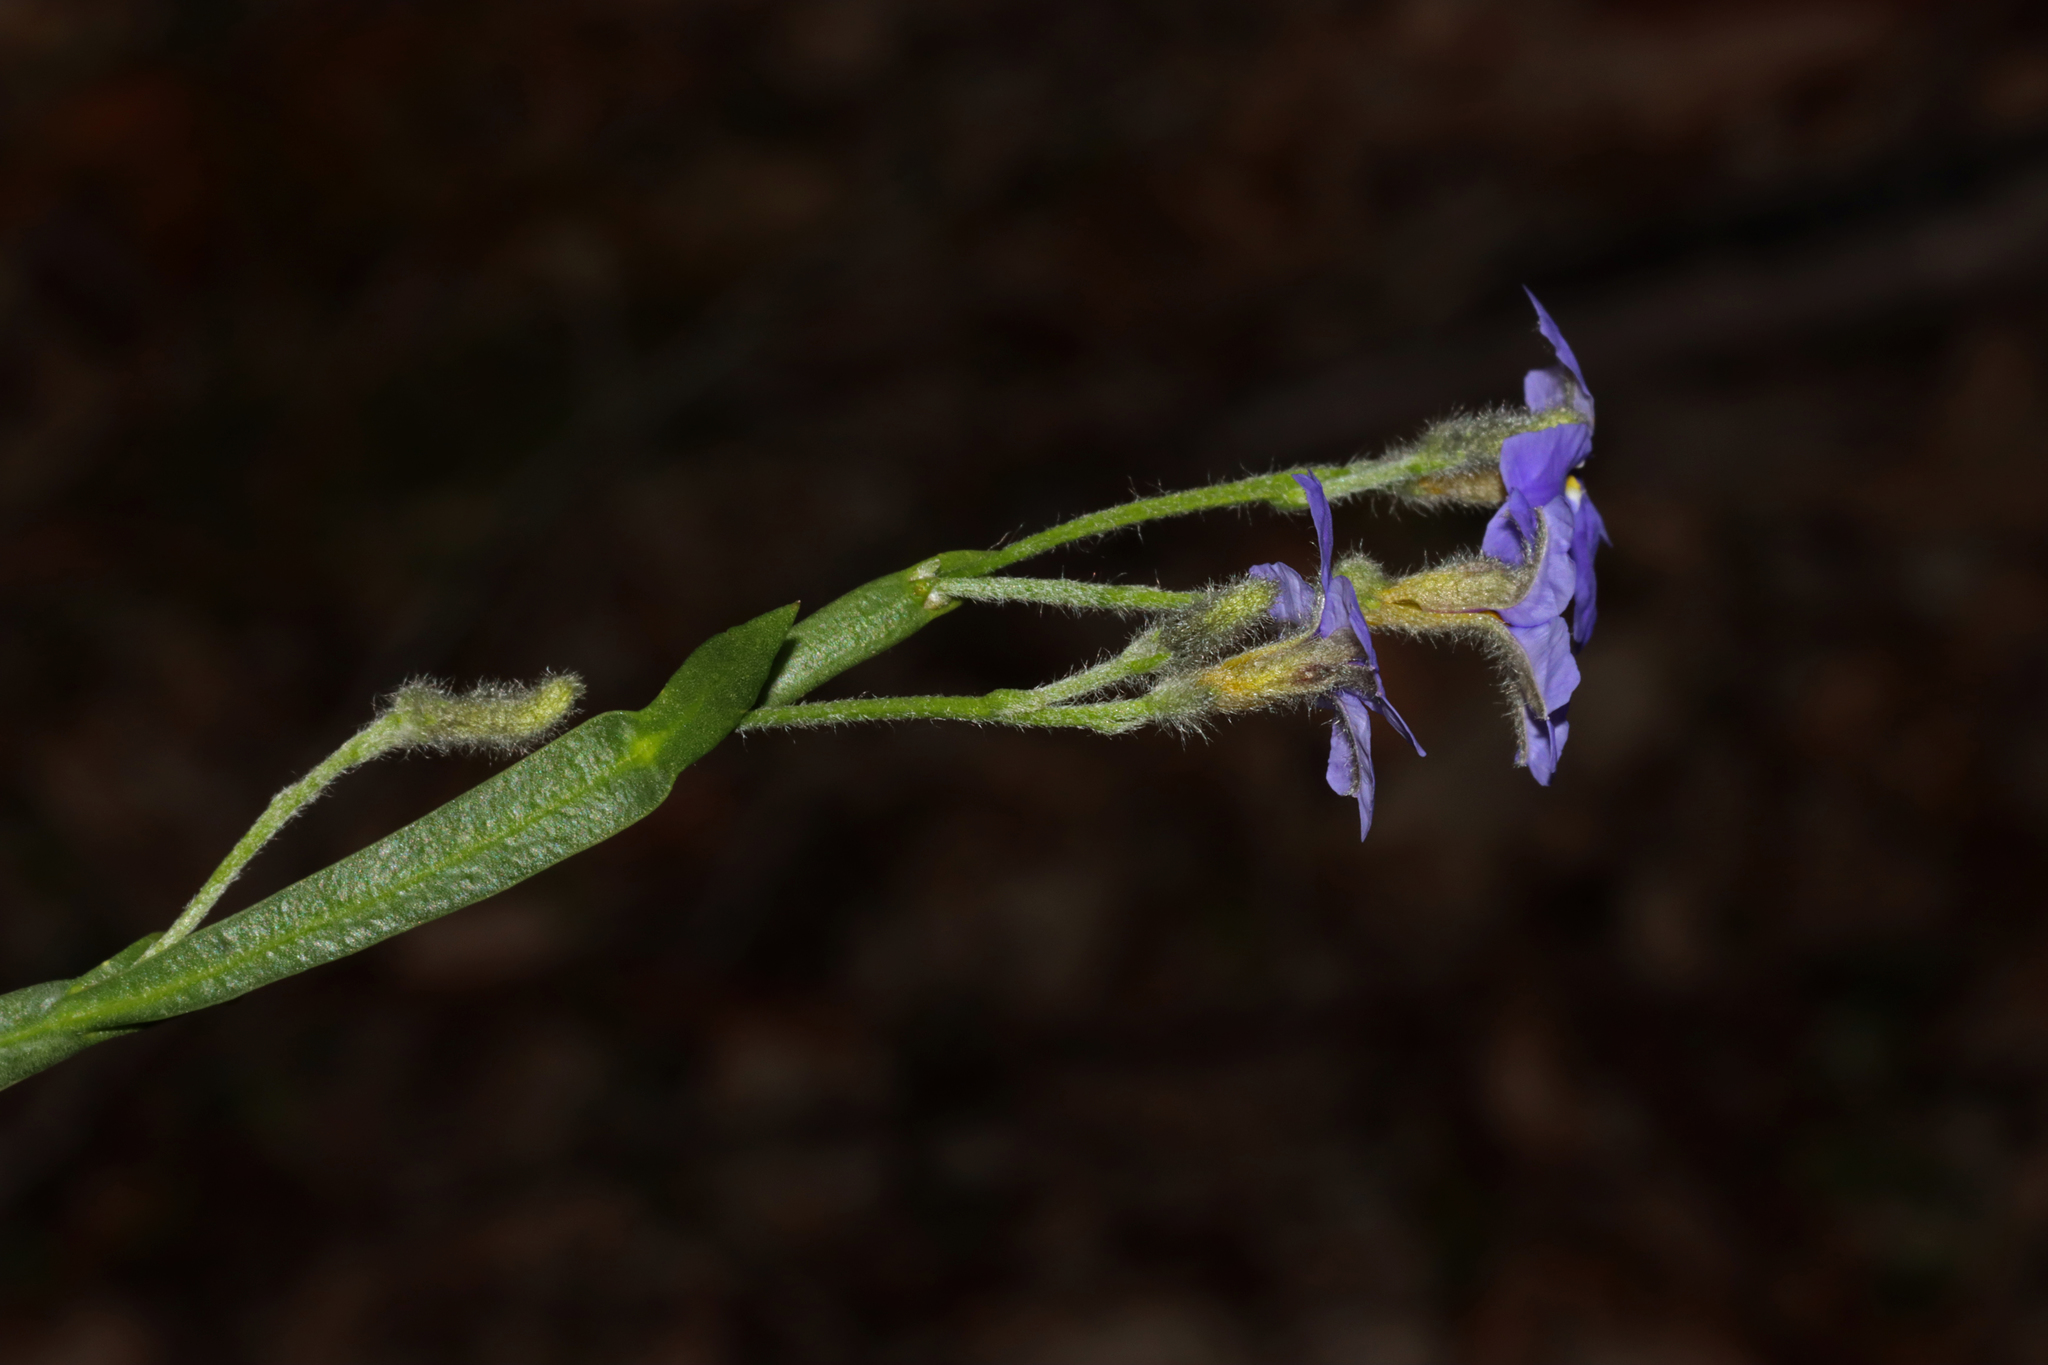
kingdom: Plantae
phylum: Tracheophyta
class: Magnoliopsida
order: Asterales
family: Goodeniaceae
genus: Dampiera
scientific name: Dampiera alata
